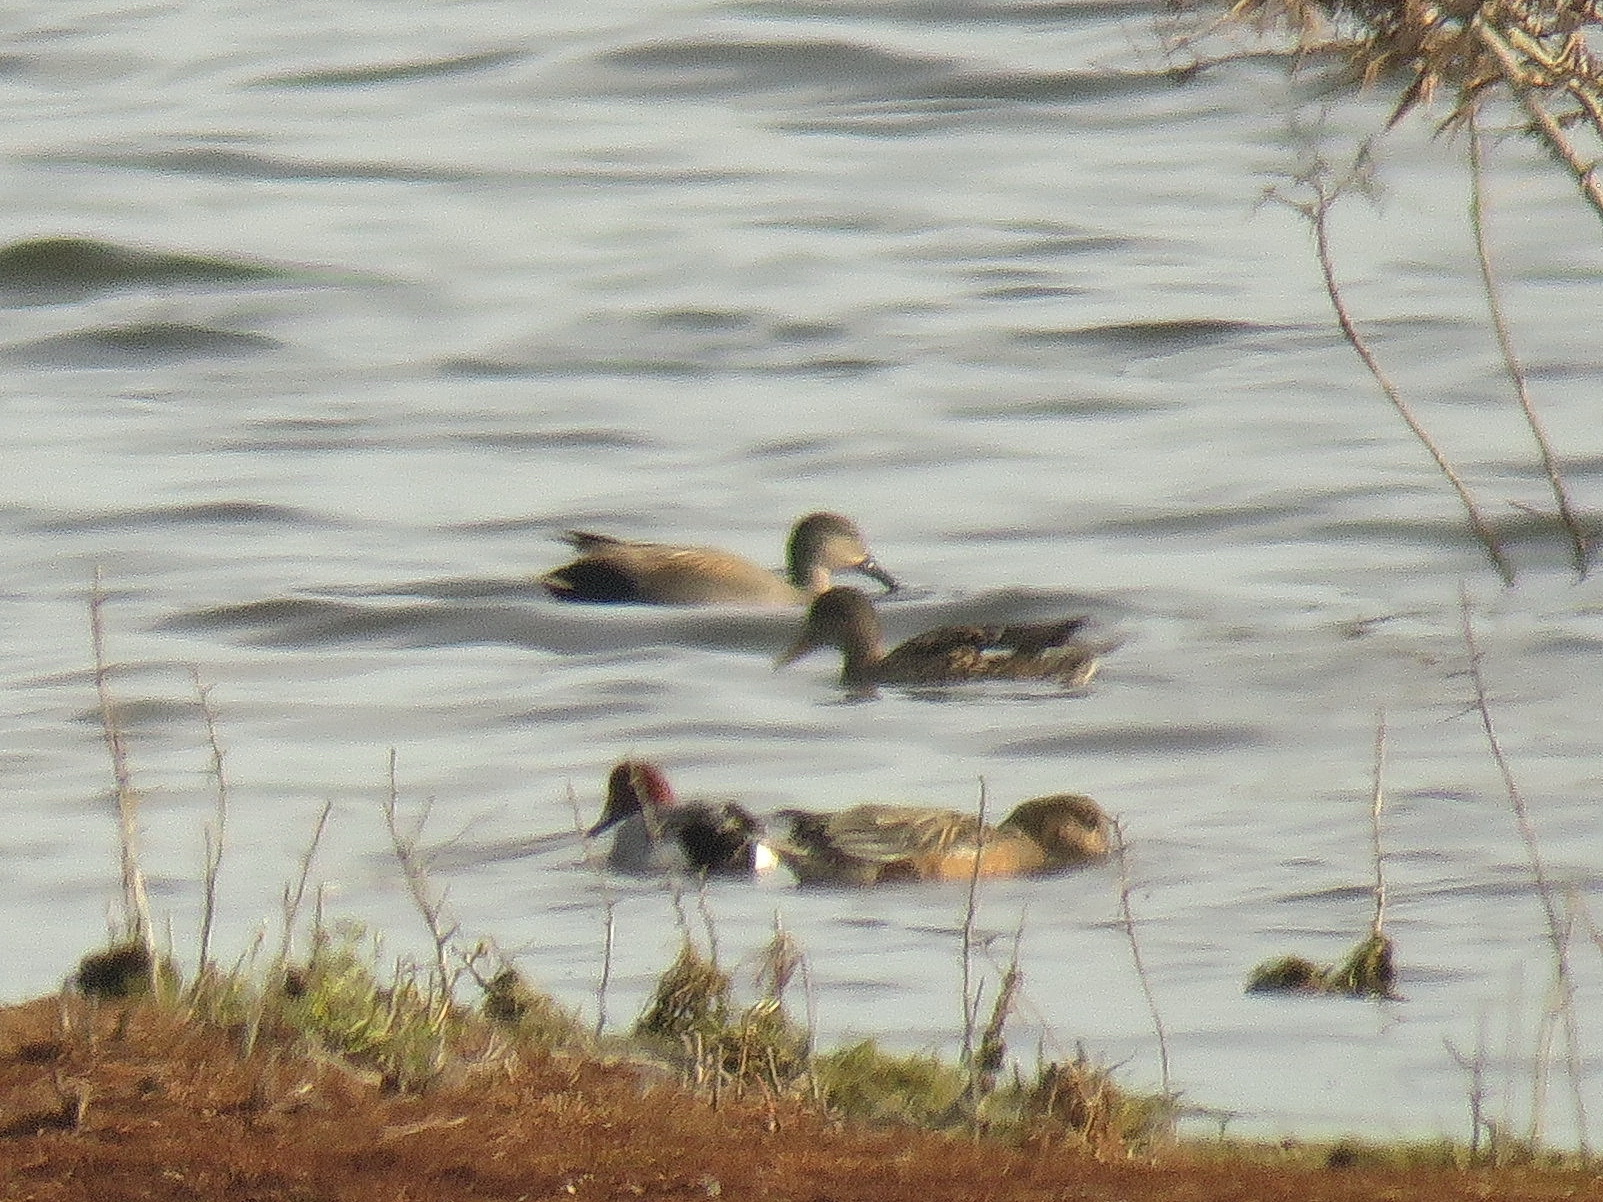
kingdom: Animalia
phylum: Chordata
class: Aves
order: Anseriformes
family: Anatidae
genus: Mareca
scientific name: Mareca strepera
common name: Gadwall
